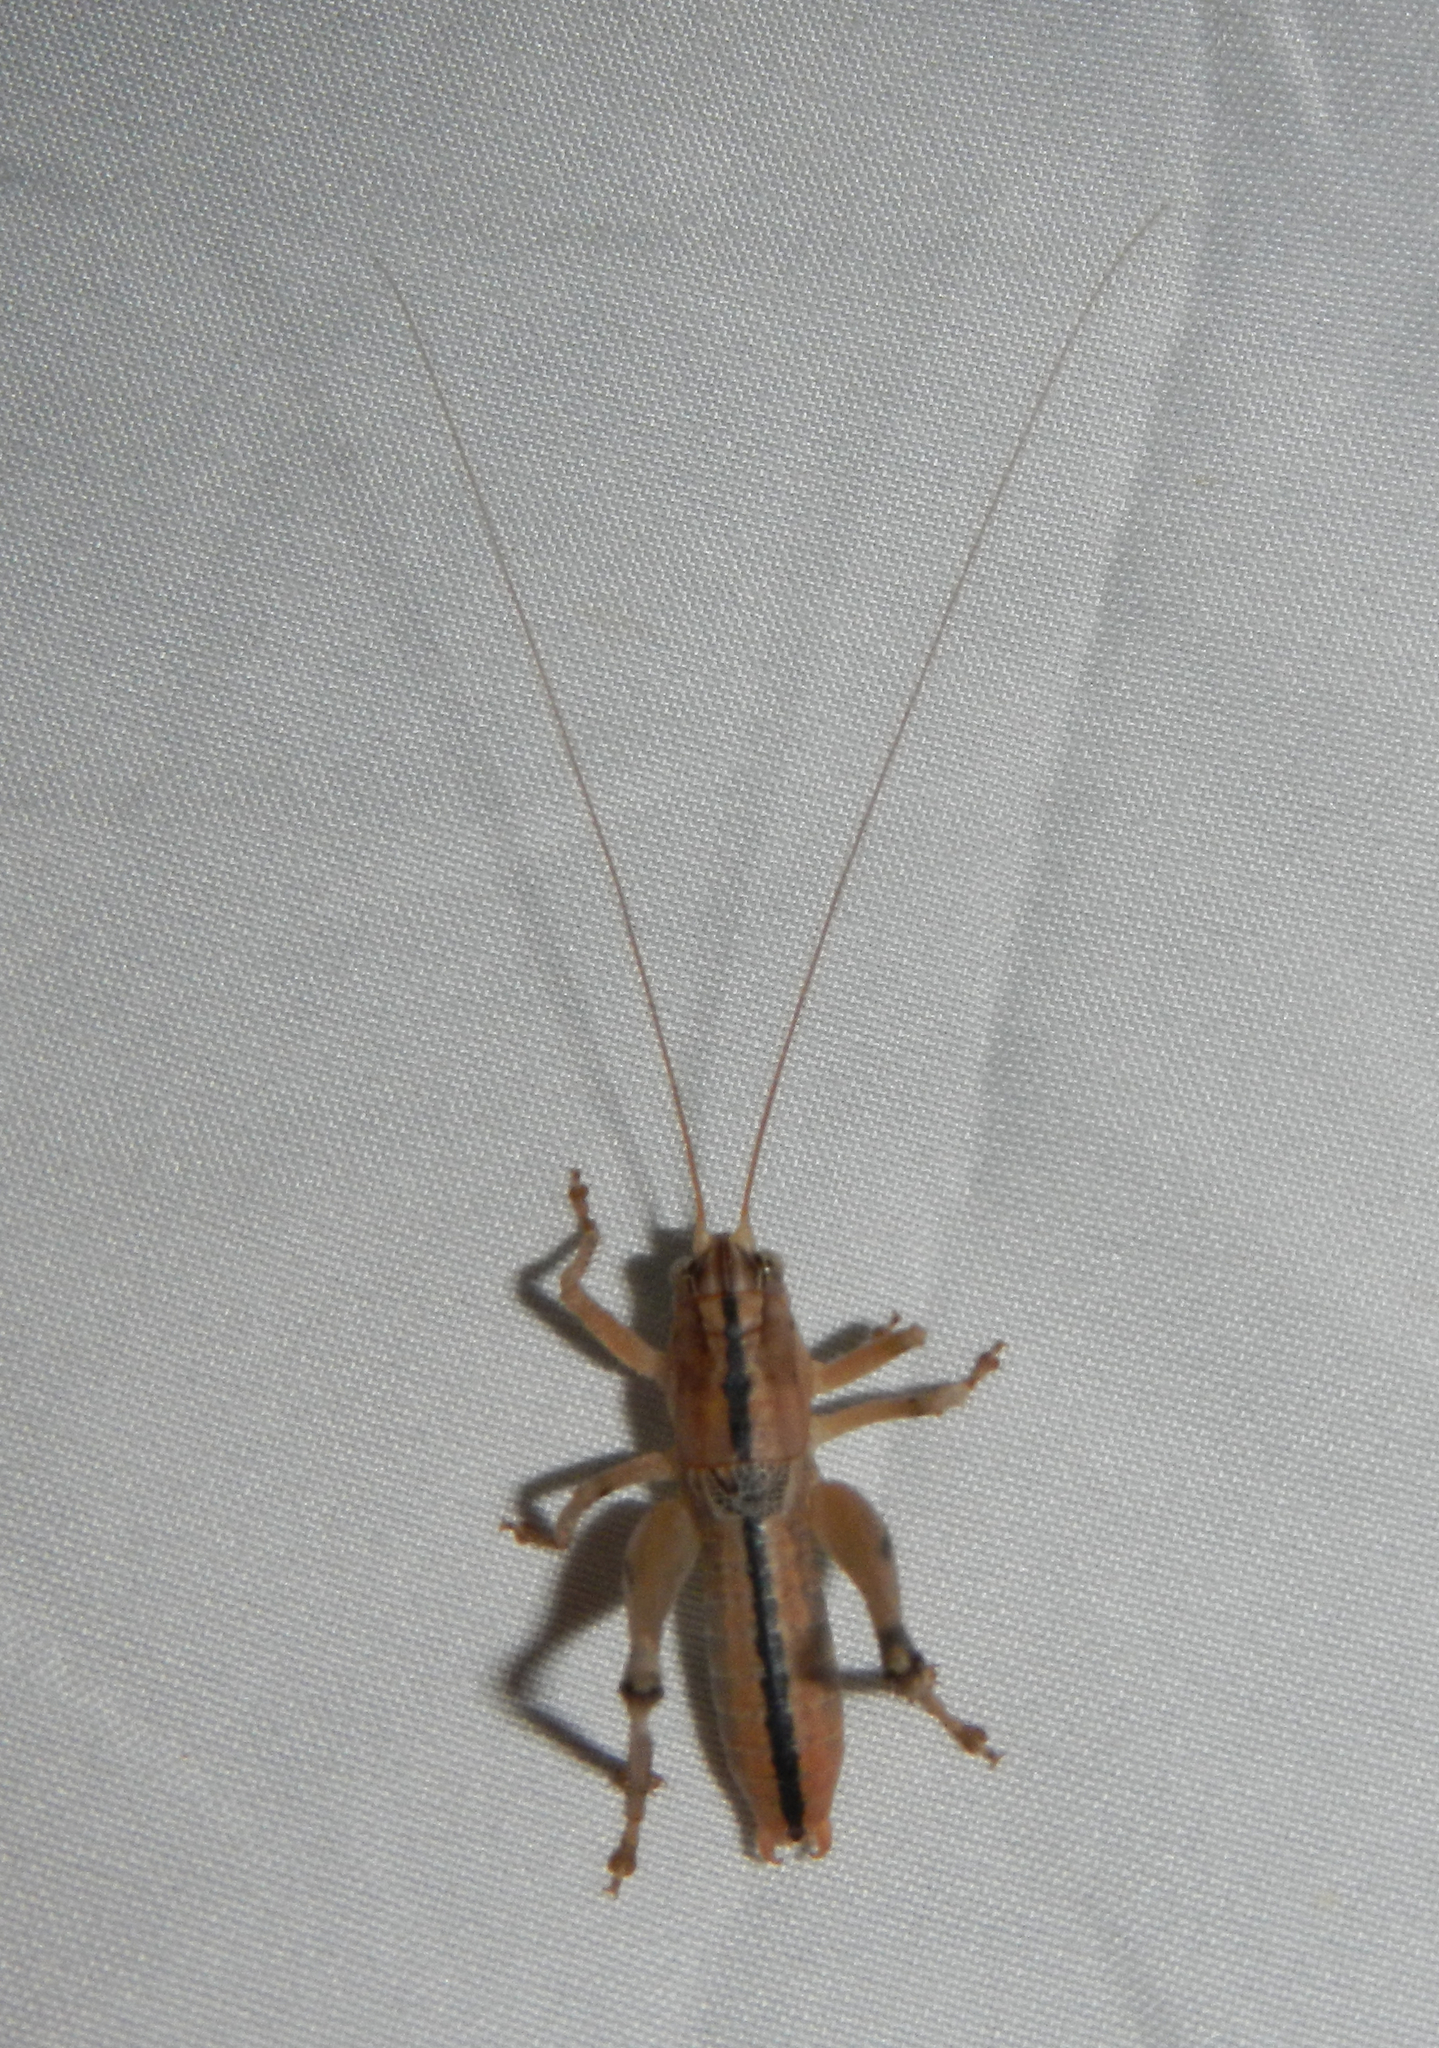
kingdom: Animalia
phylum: Arthropoda
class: Insecta
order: Orthoptera
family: Tettigoniidae
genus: Ateloplus
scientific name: Ateloplus luteus
